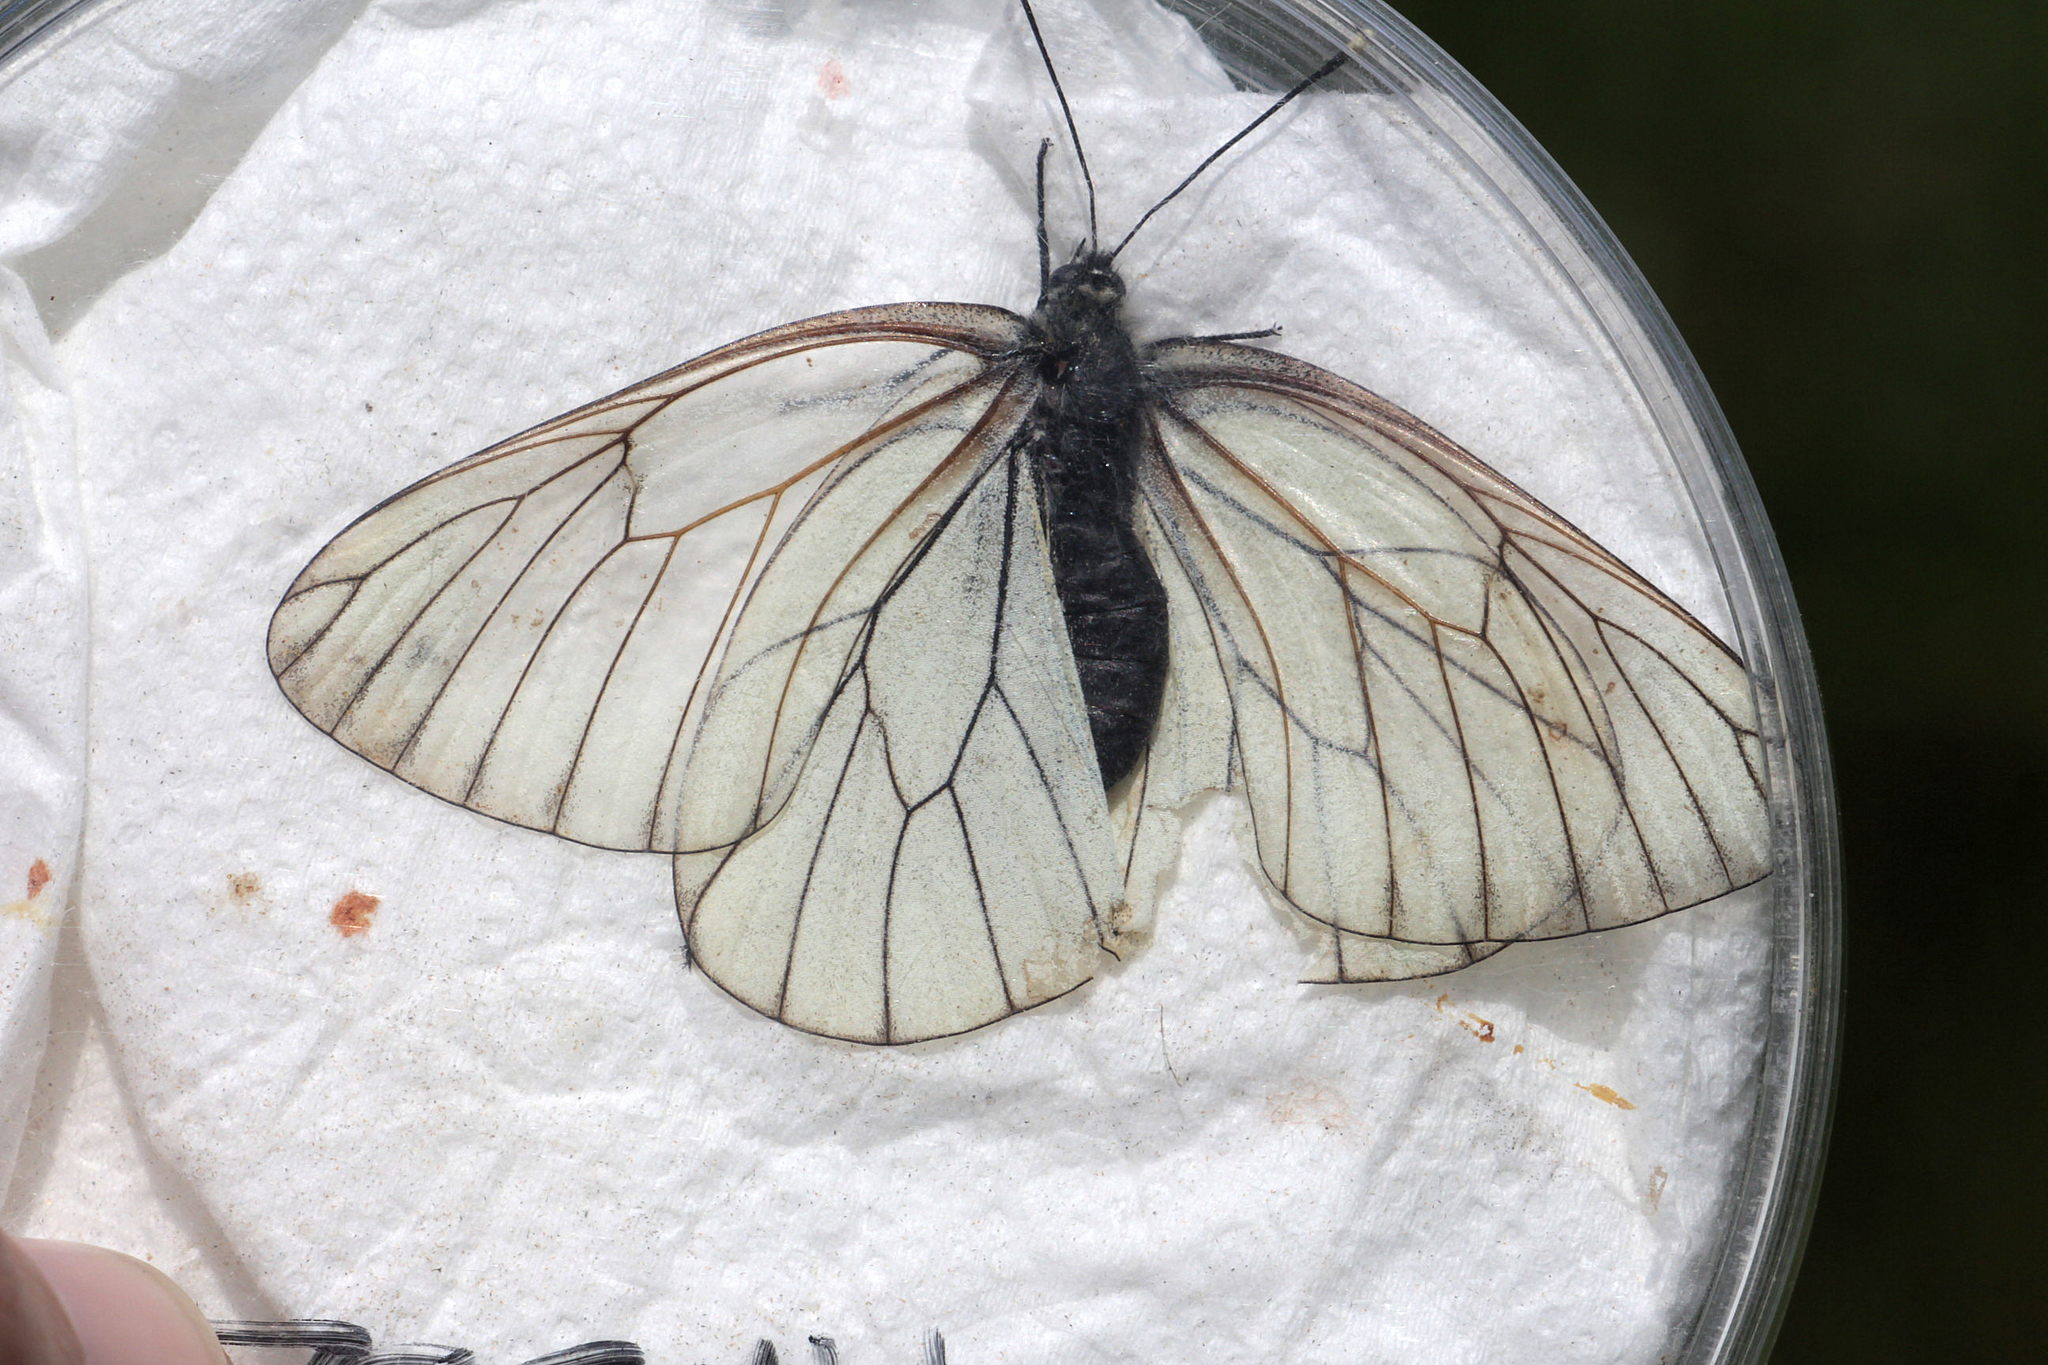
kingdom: Animalia
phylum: Arthropoda
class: Insecta
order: Lepidoptera
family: Pieridae
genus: Aporia
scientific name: Aporia crataegi
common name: Black-veined white
